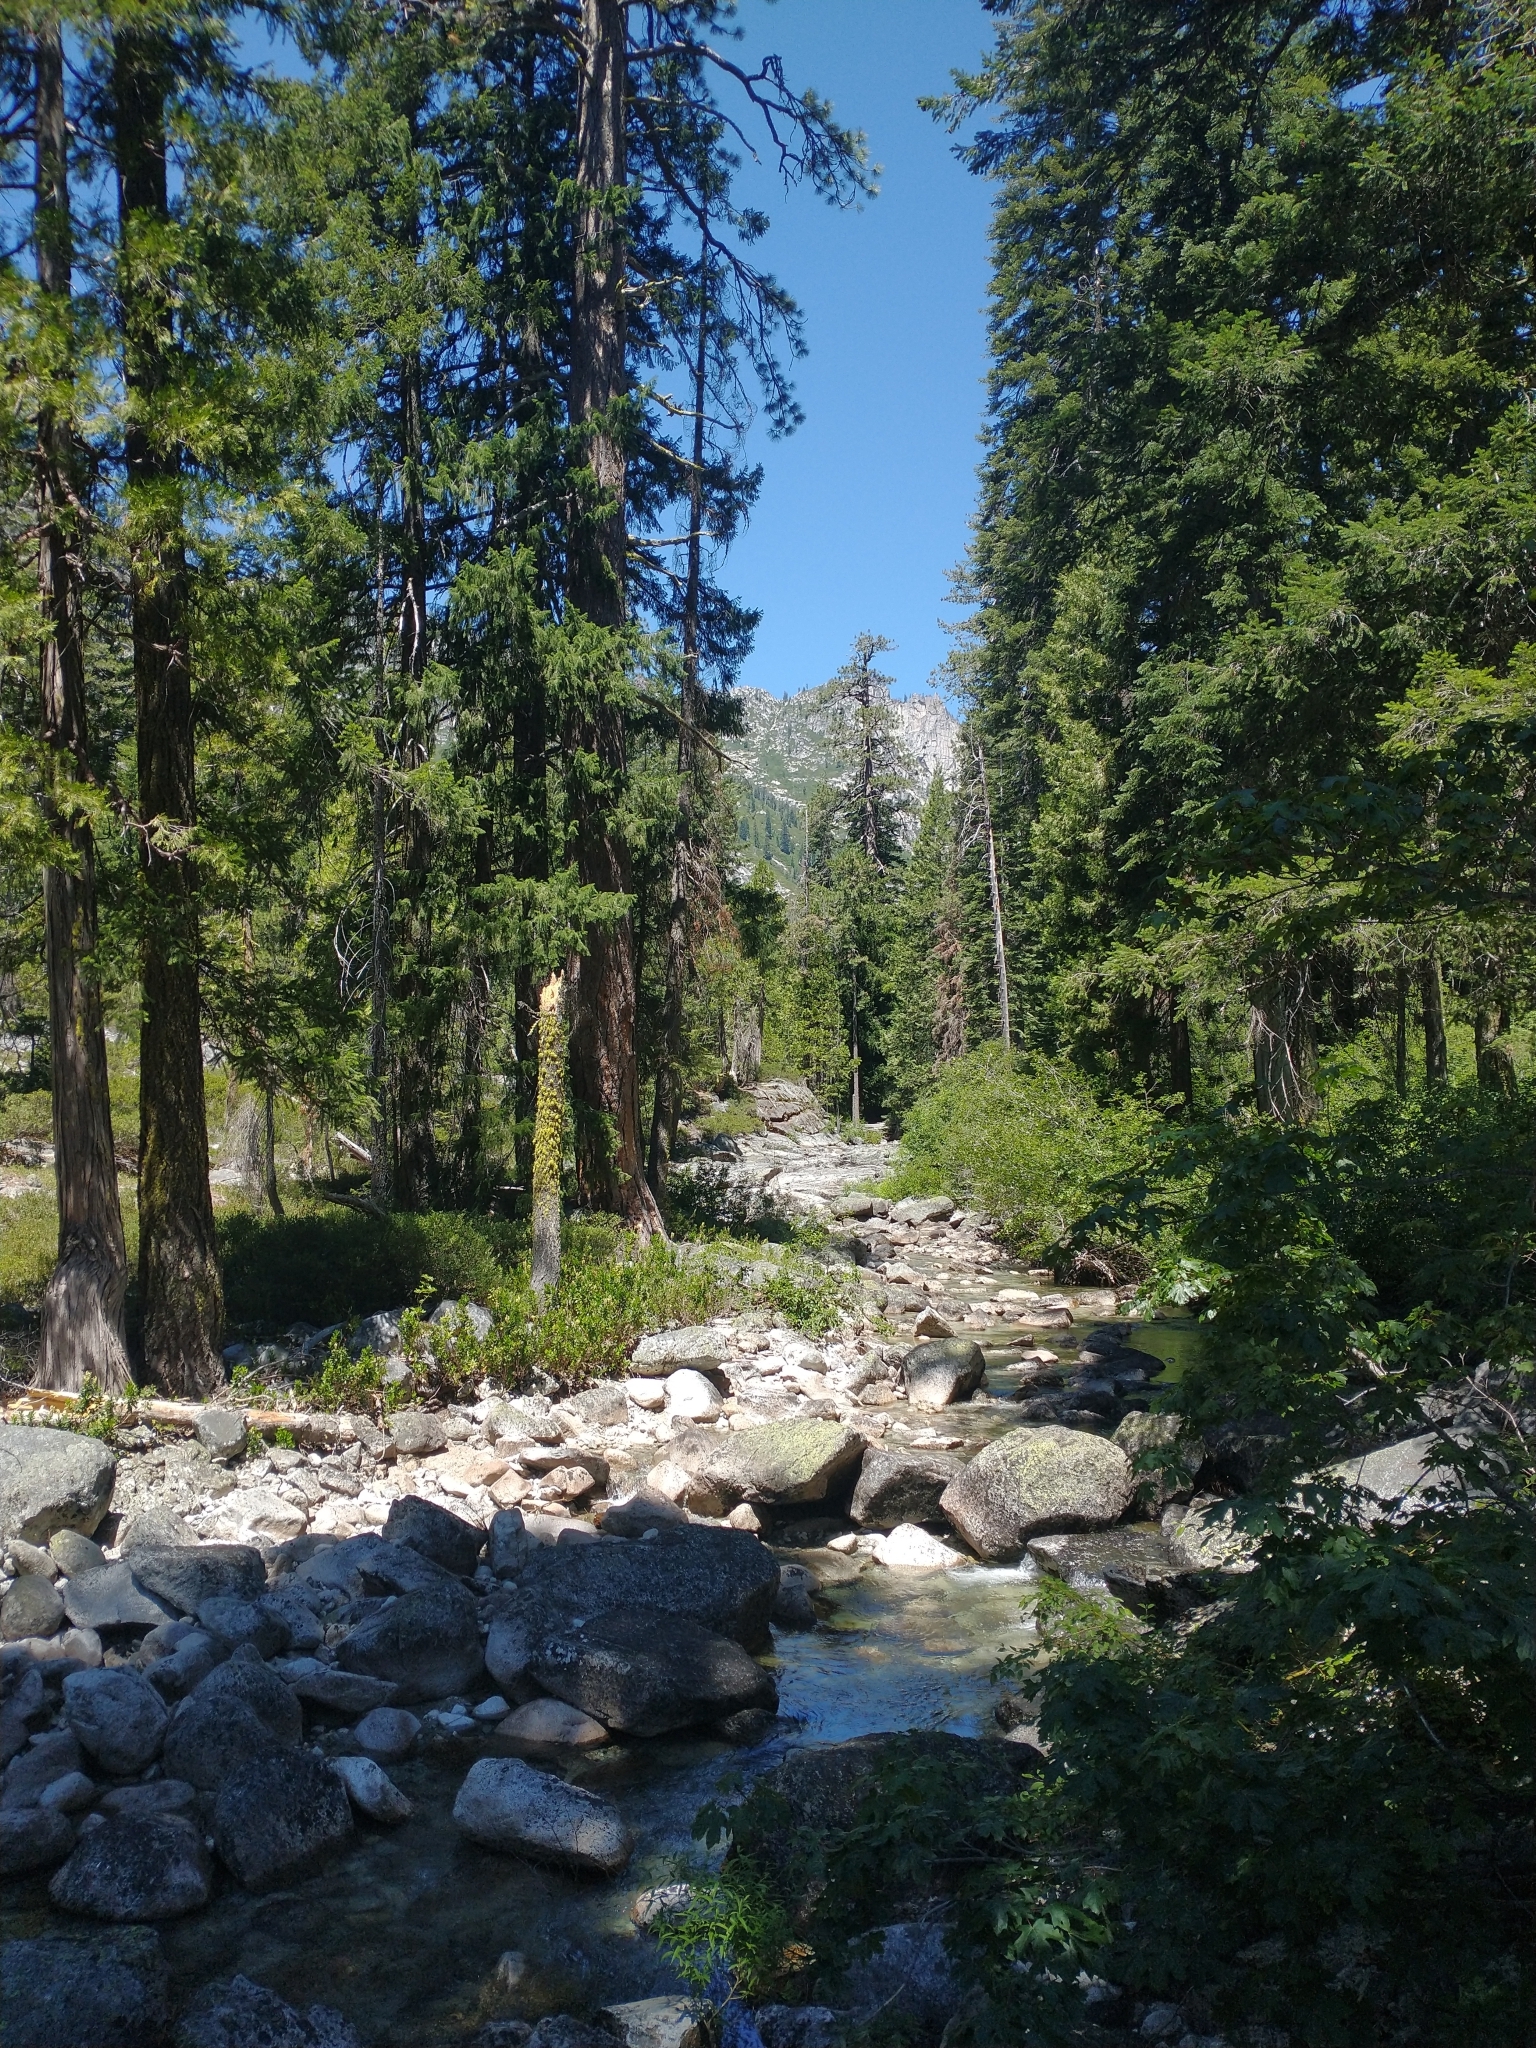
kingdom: Plantae
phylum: Tracheophyta
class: Pinopsida
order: Pinales
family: Pinaceae
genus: Pseudotsuga
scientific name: Pseudotsuga menziesii
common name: Douglas fir
